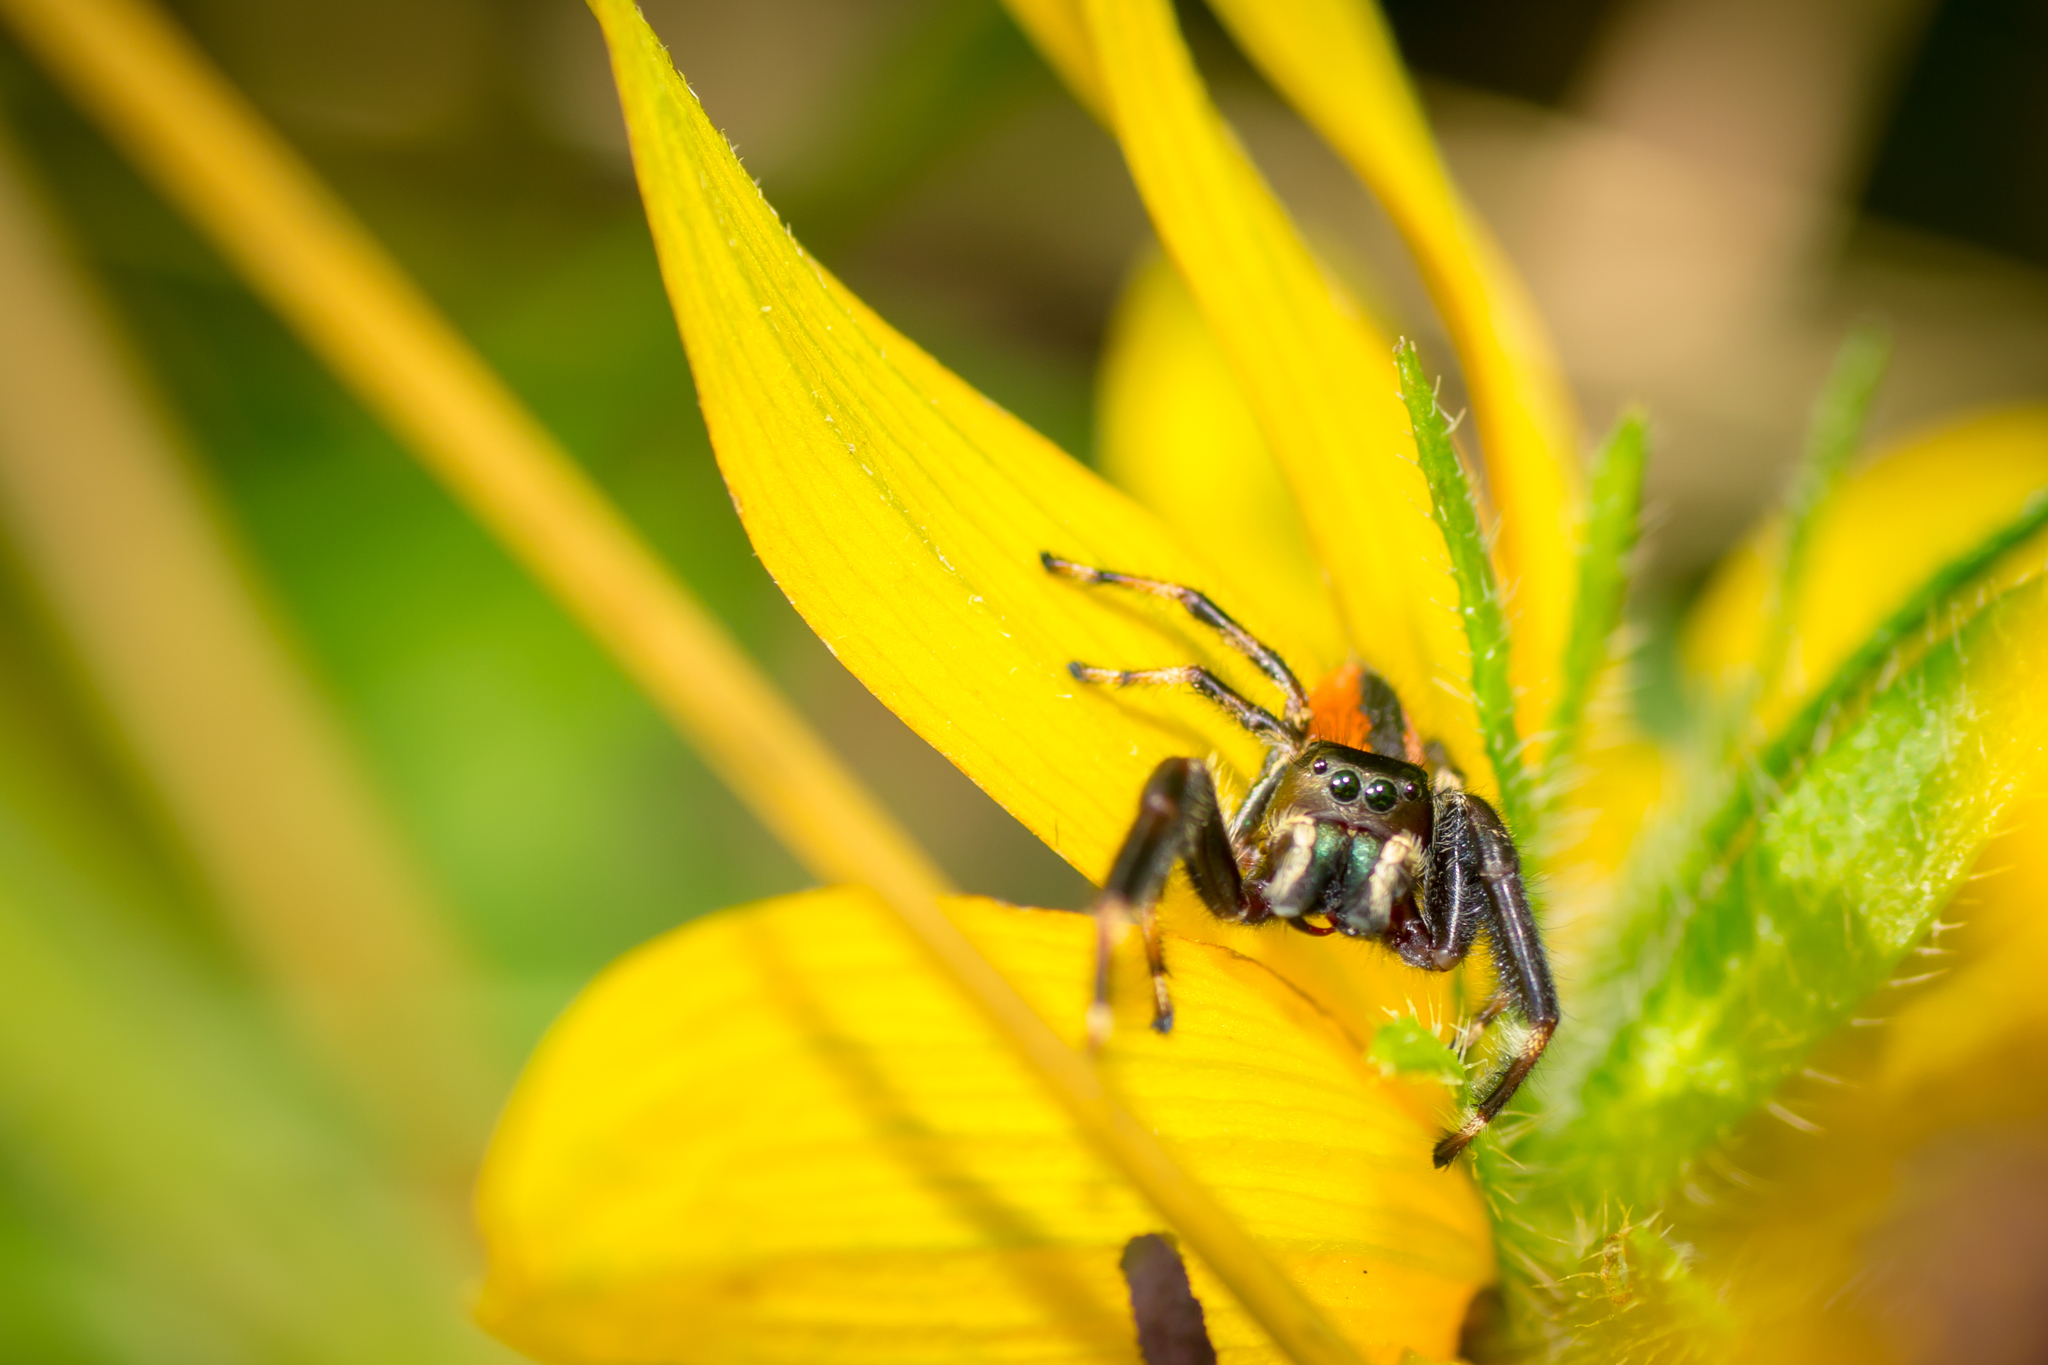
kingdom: Animalia
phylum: Arthropoda
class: Arachnida
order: Araneae
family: Salticidae
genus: Phidippus
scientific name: Phidippus clarus
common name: Brilliant jumping spider
